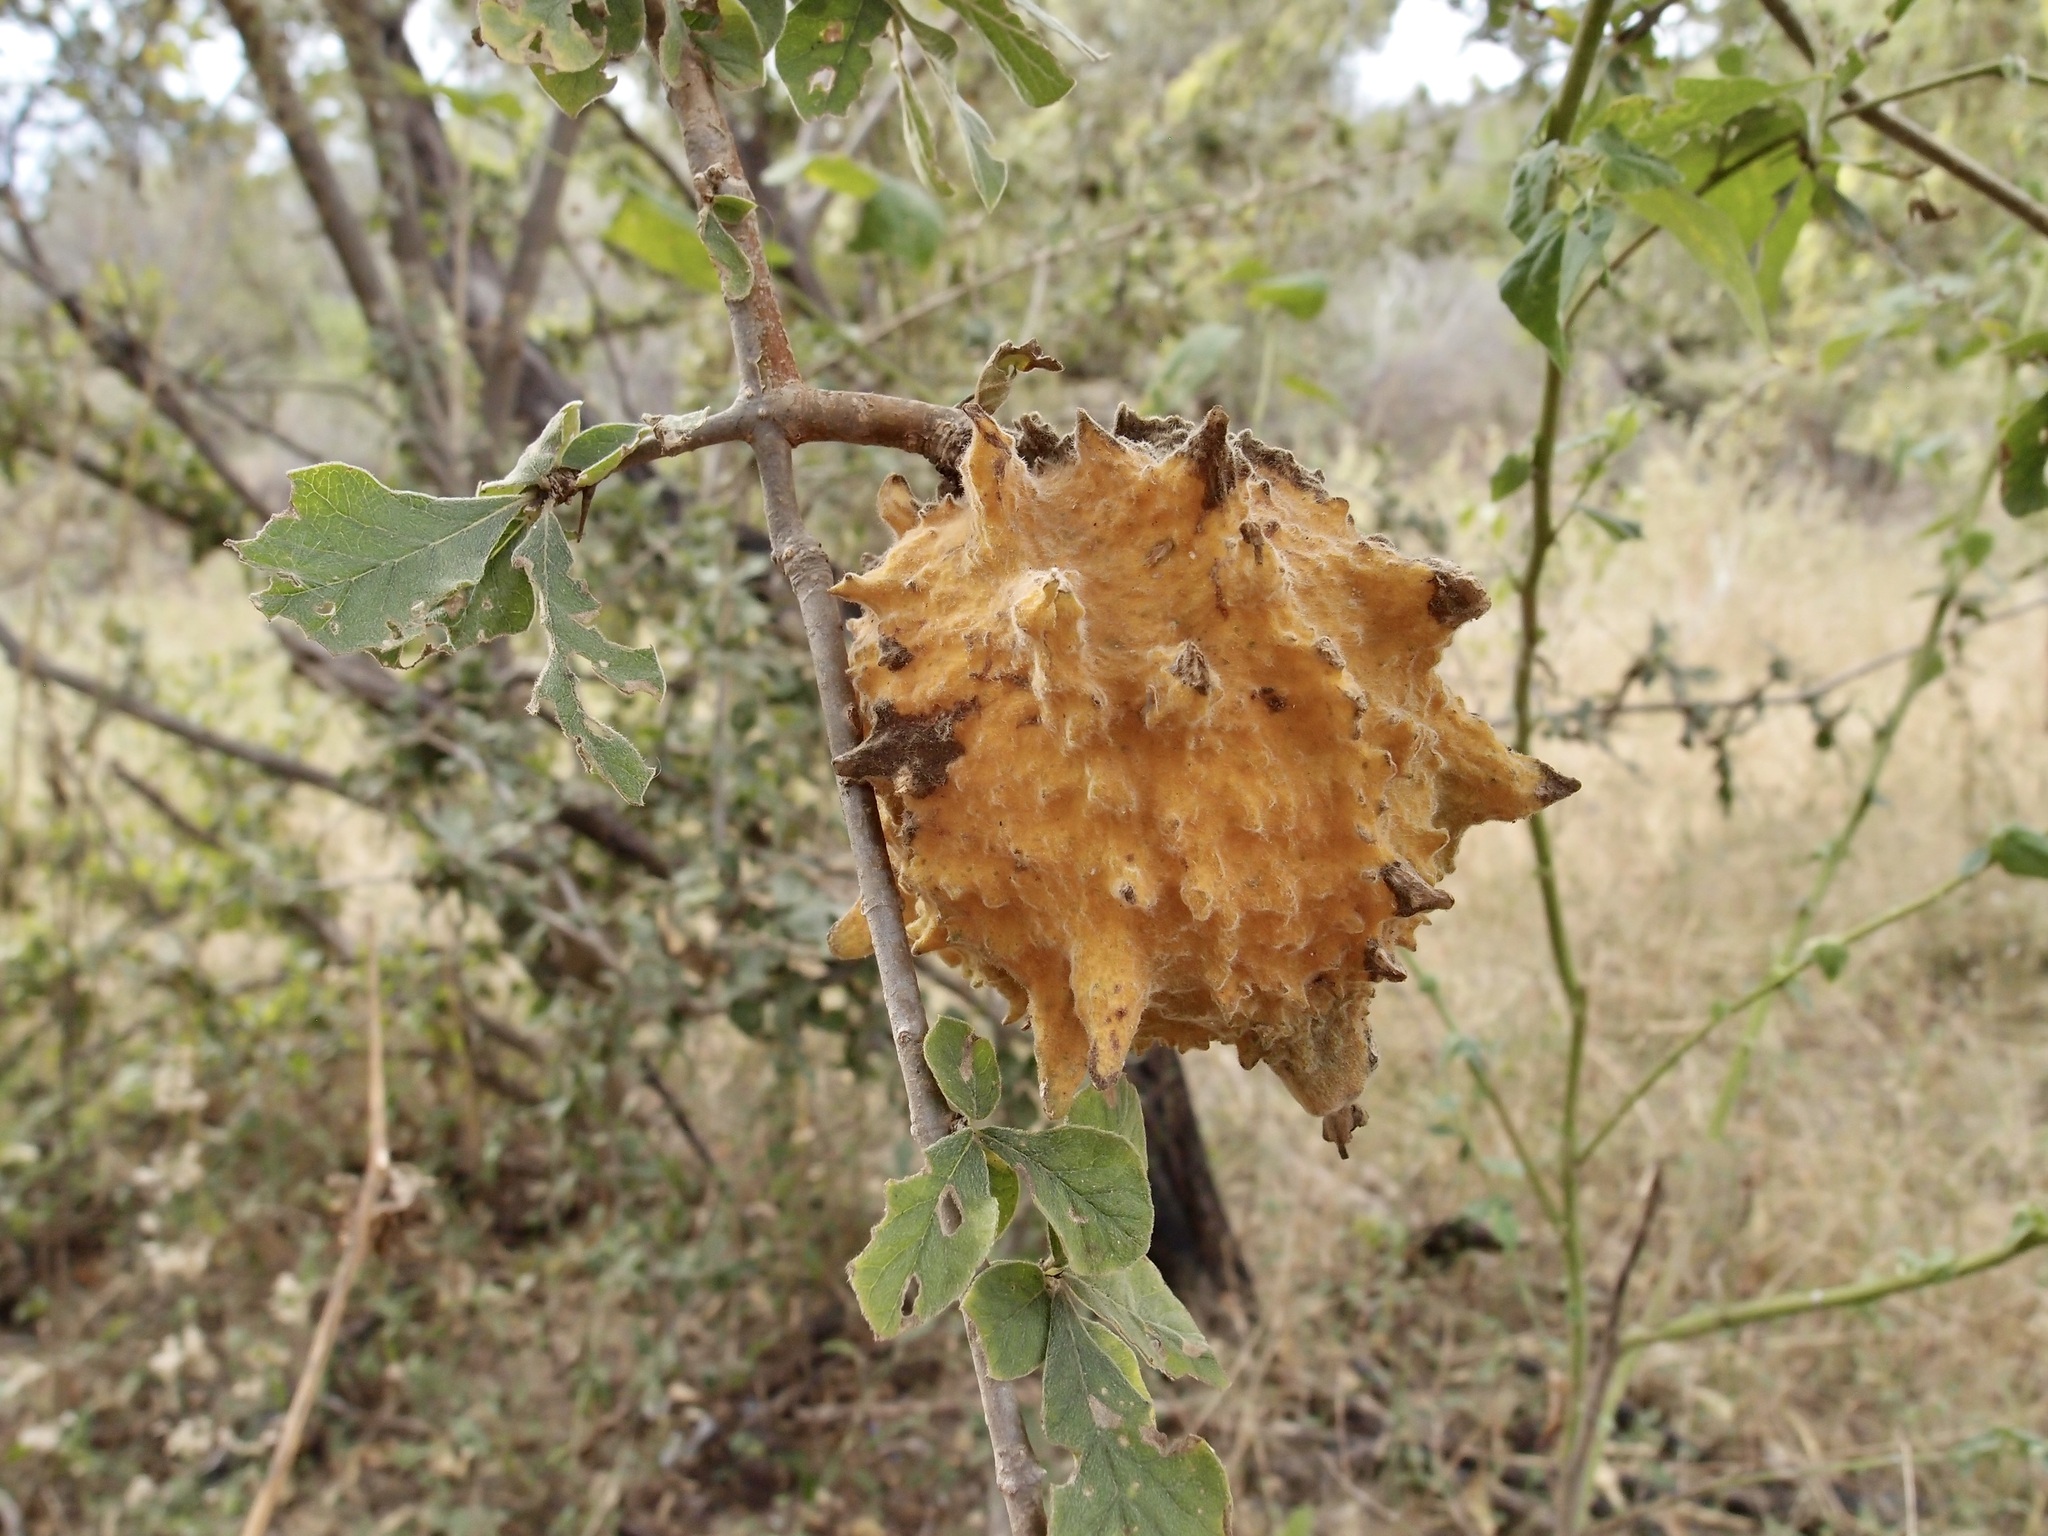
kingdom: Plantae
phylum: Tracheophyta
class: Magnoliopsida
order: Gentianales
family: Rubiaceae
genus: Randia
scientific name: Randia echinocarpa
